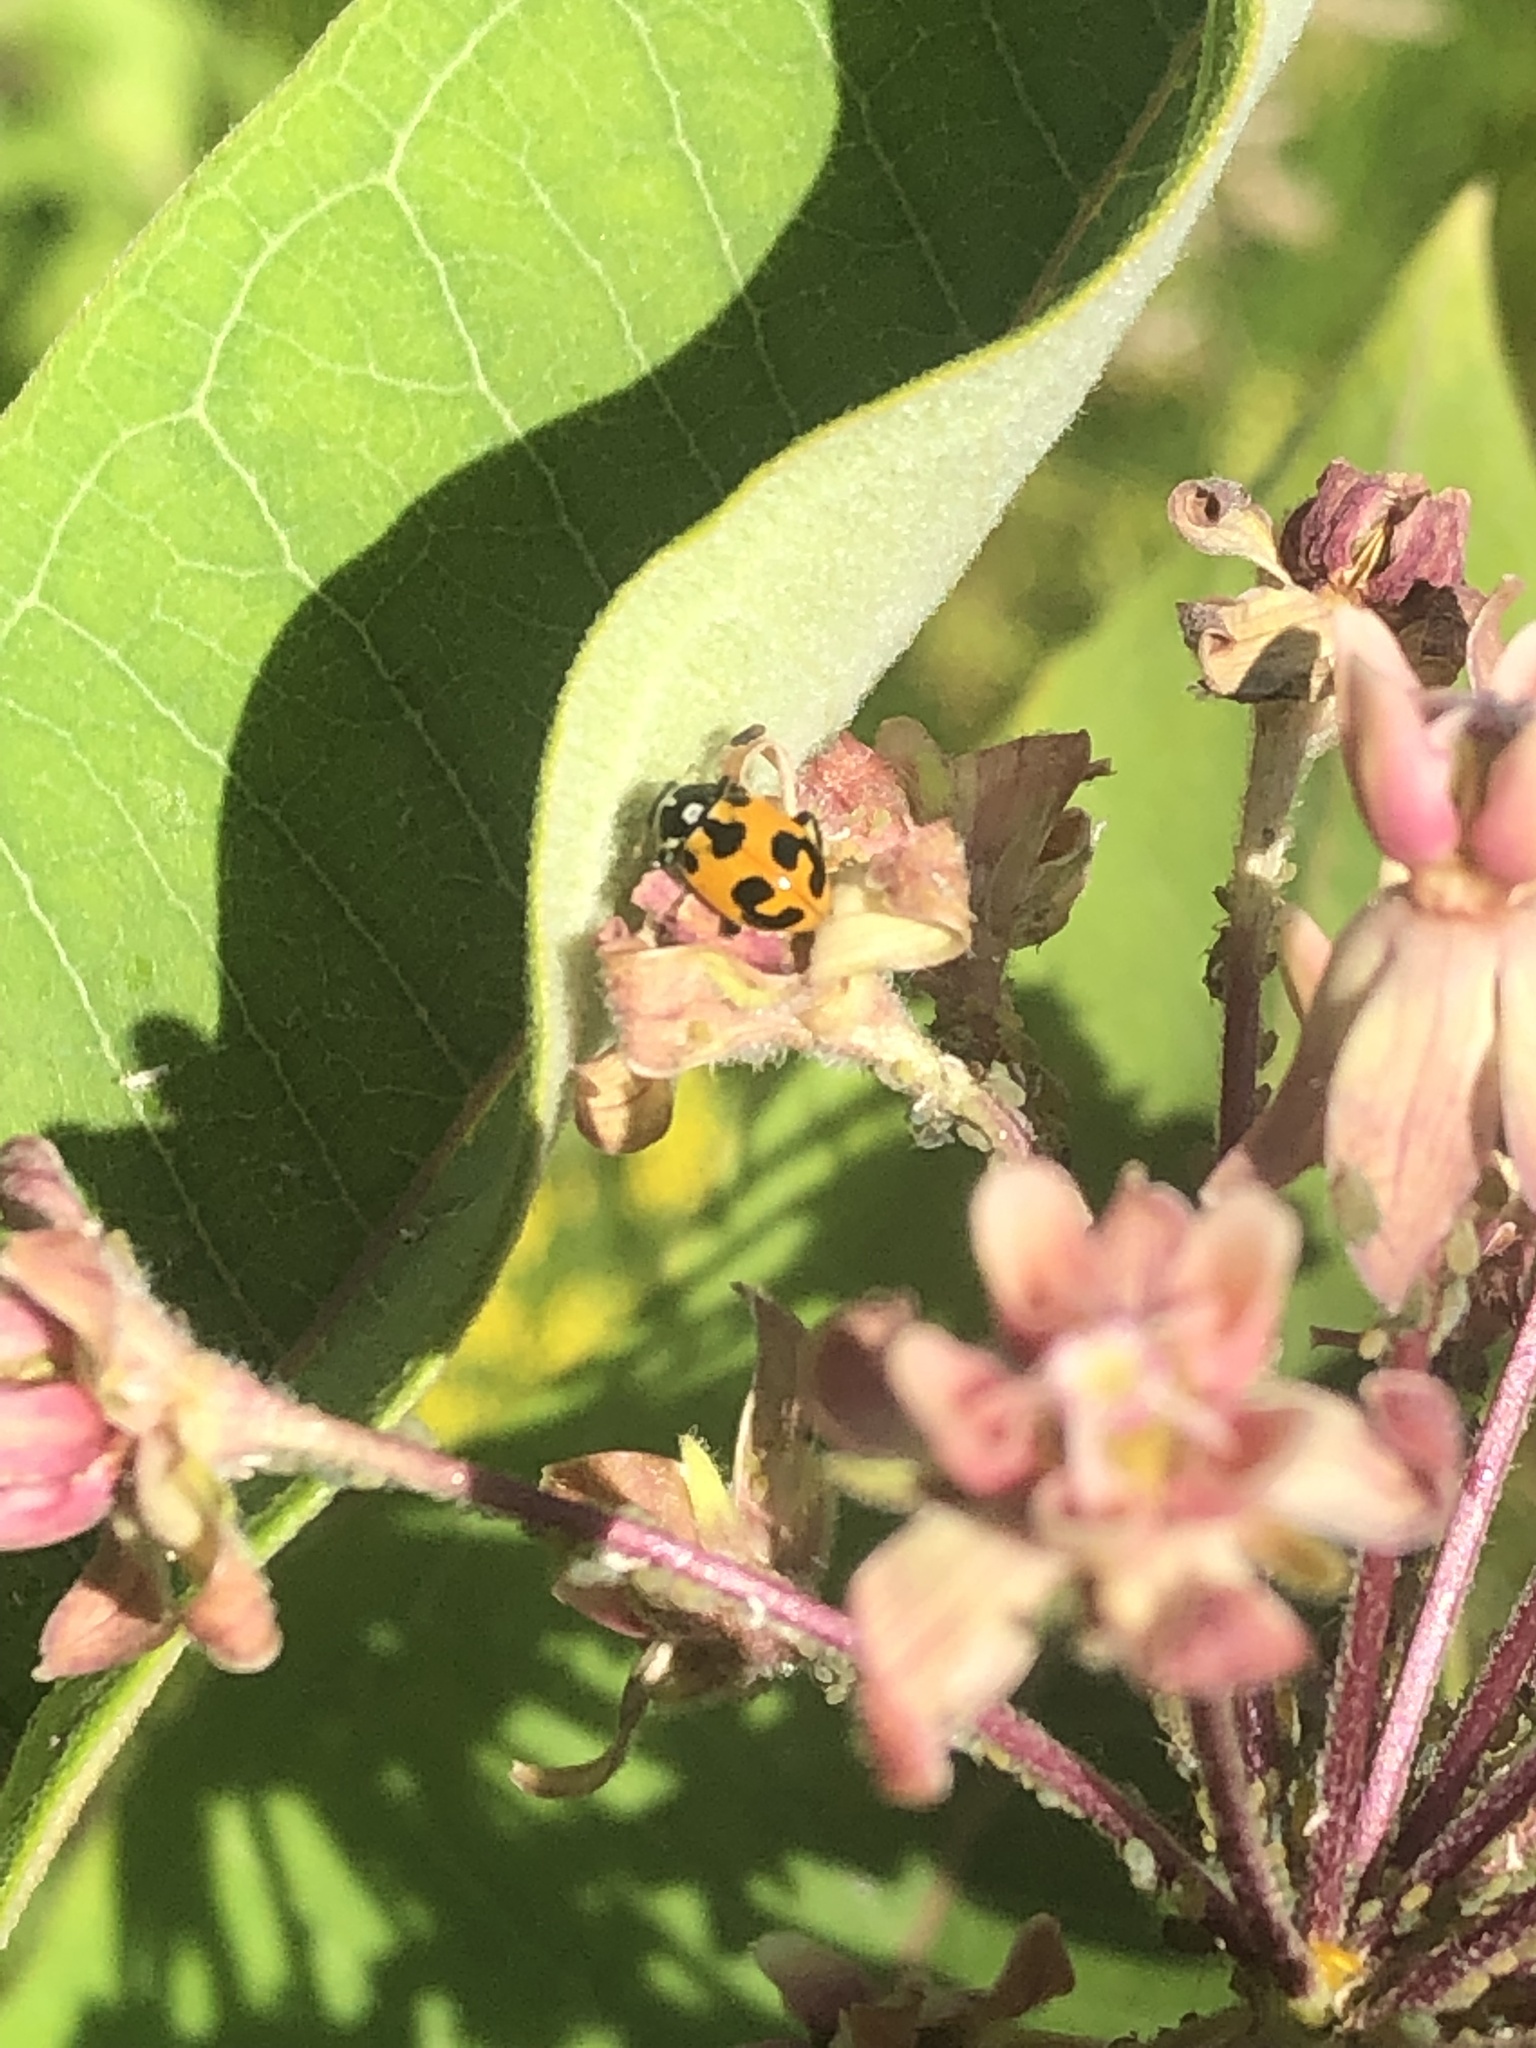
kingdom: Animalia
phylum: Arthropoda
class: Insecta
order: Coleoptera
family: Coccinellidae
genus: Hippodamia
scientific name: Hippodamia parenthesis
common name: Parenthesis lady beetle
